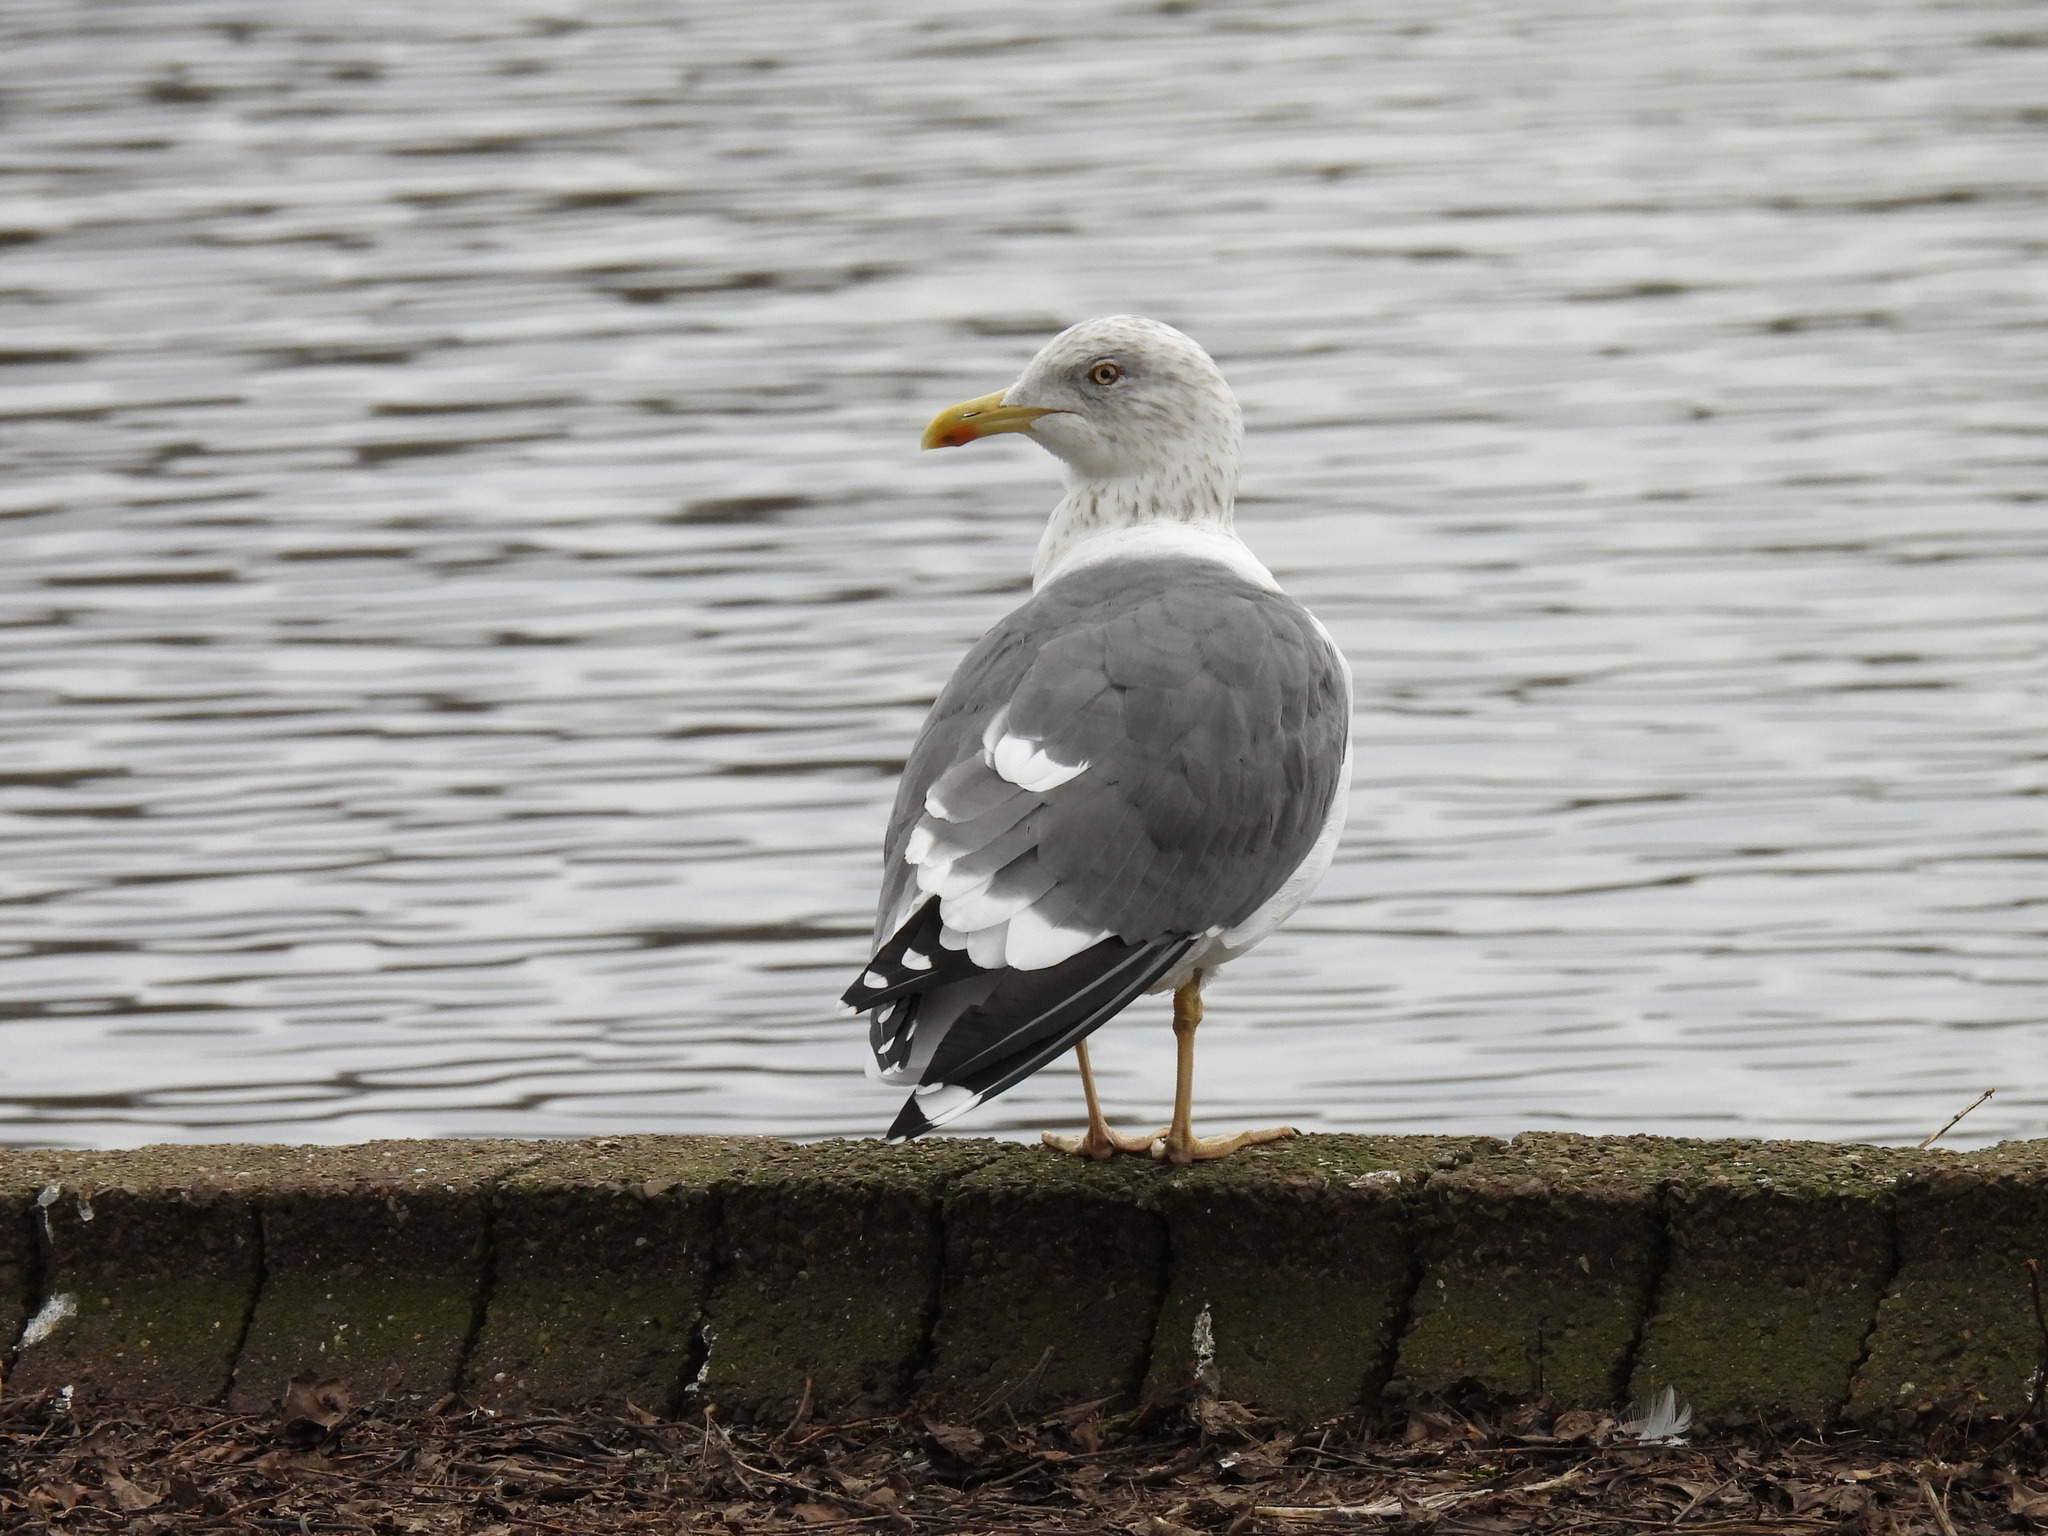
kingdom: Animalia
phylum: Chordata
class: Aves
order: Charadriiformes
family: Laridae
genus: Larus
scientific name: Larus fuscus
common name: Lesser black-backed gull
